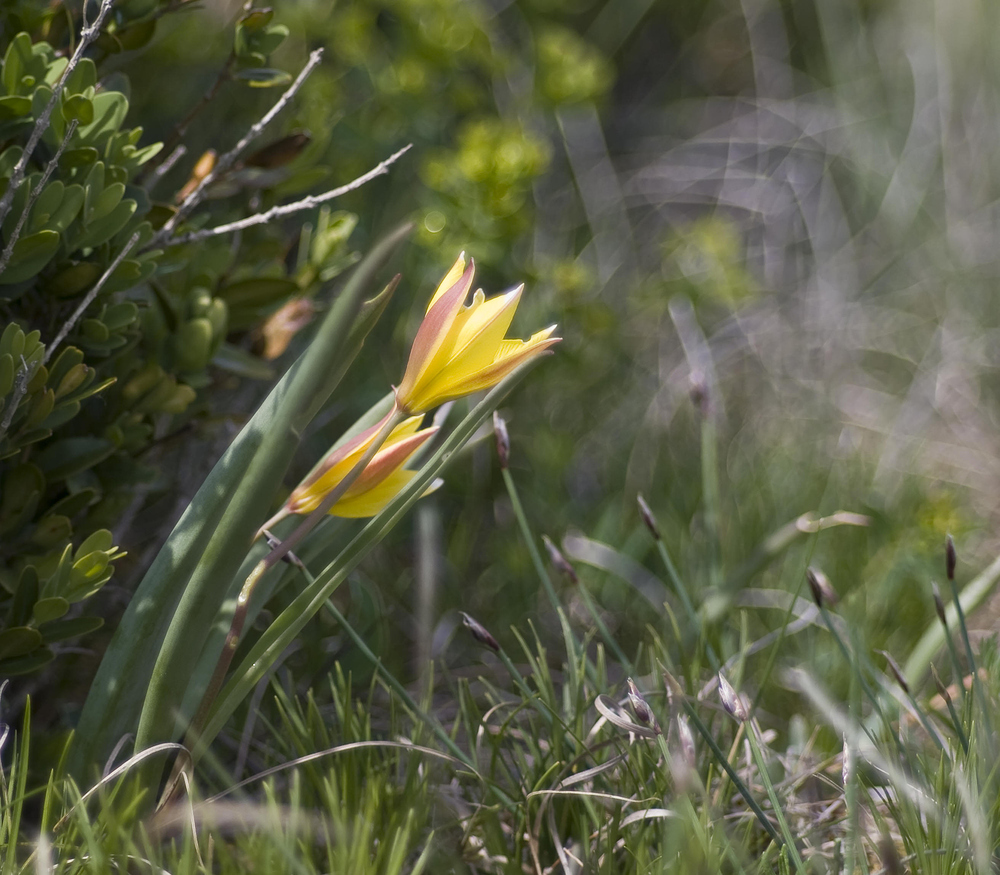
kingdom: Plantae
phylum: Tracheophyta
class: Liliopsida
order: Liliales
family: Liliaceae
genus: Tulipa
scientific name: Tulipa sylvestris
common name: Wild tulip
